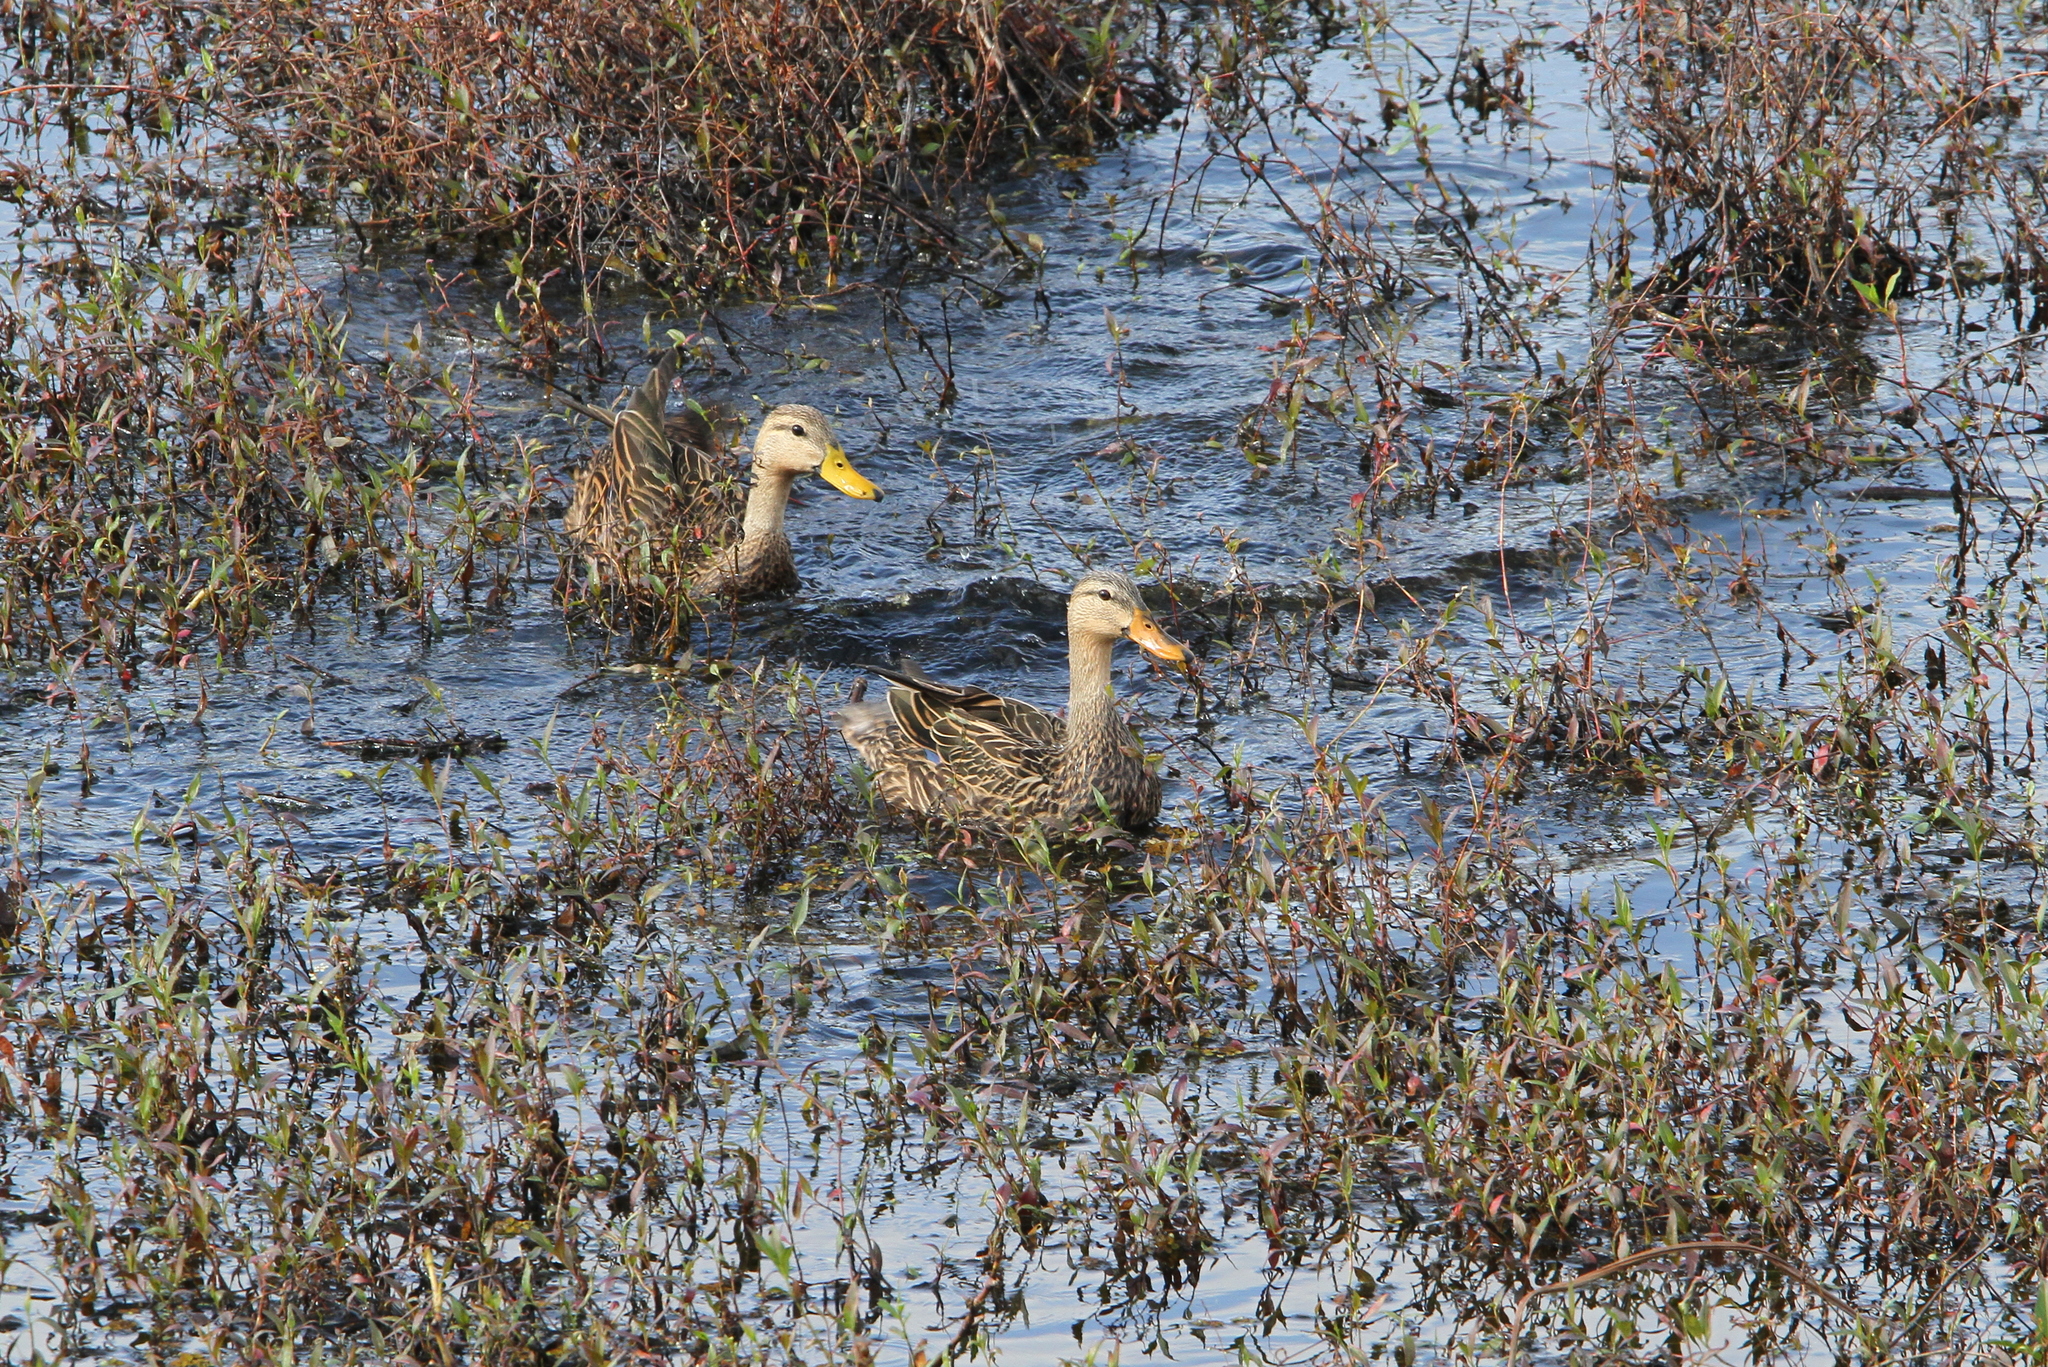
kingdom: Animalia
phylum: Chordata
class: Aves
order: Anseriformes
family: Anatidae
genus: Anas
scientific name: Anas fulvigula
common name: Mottled duck
